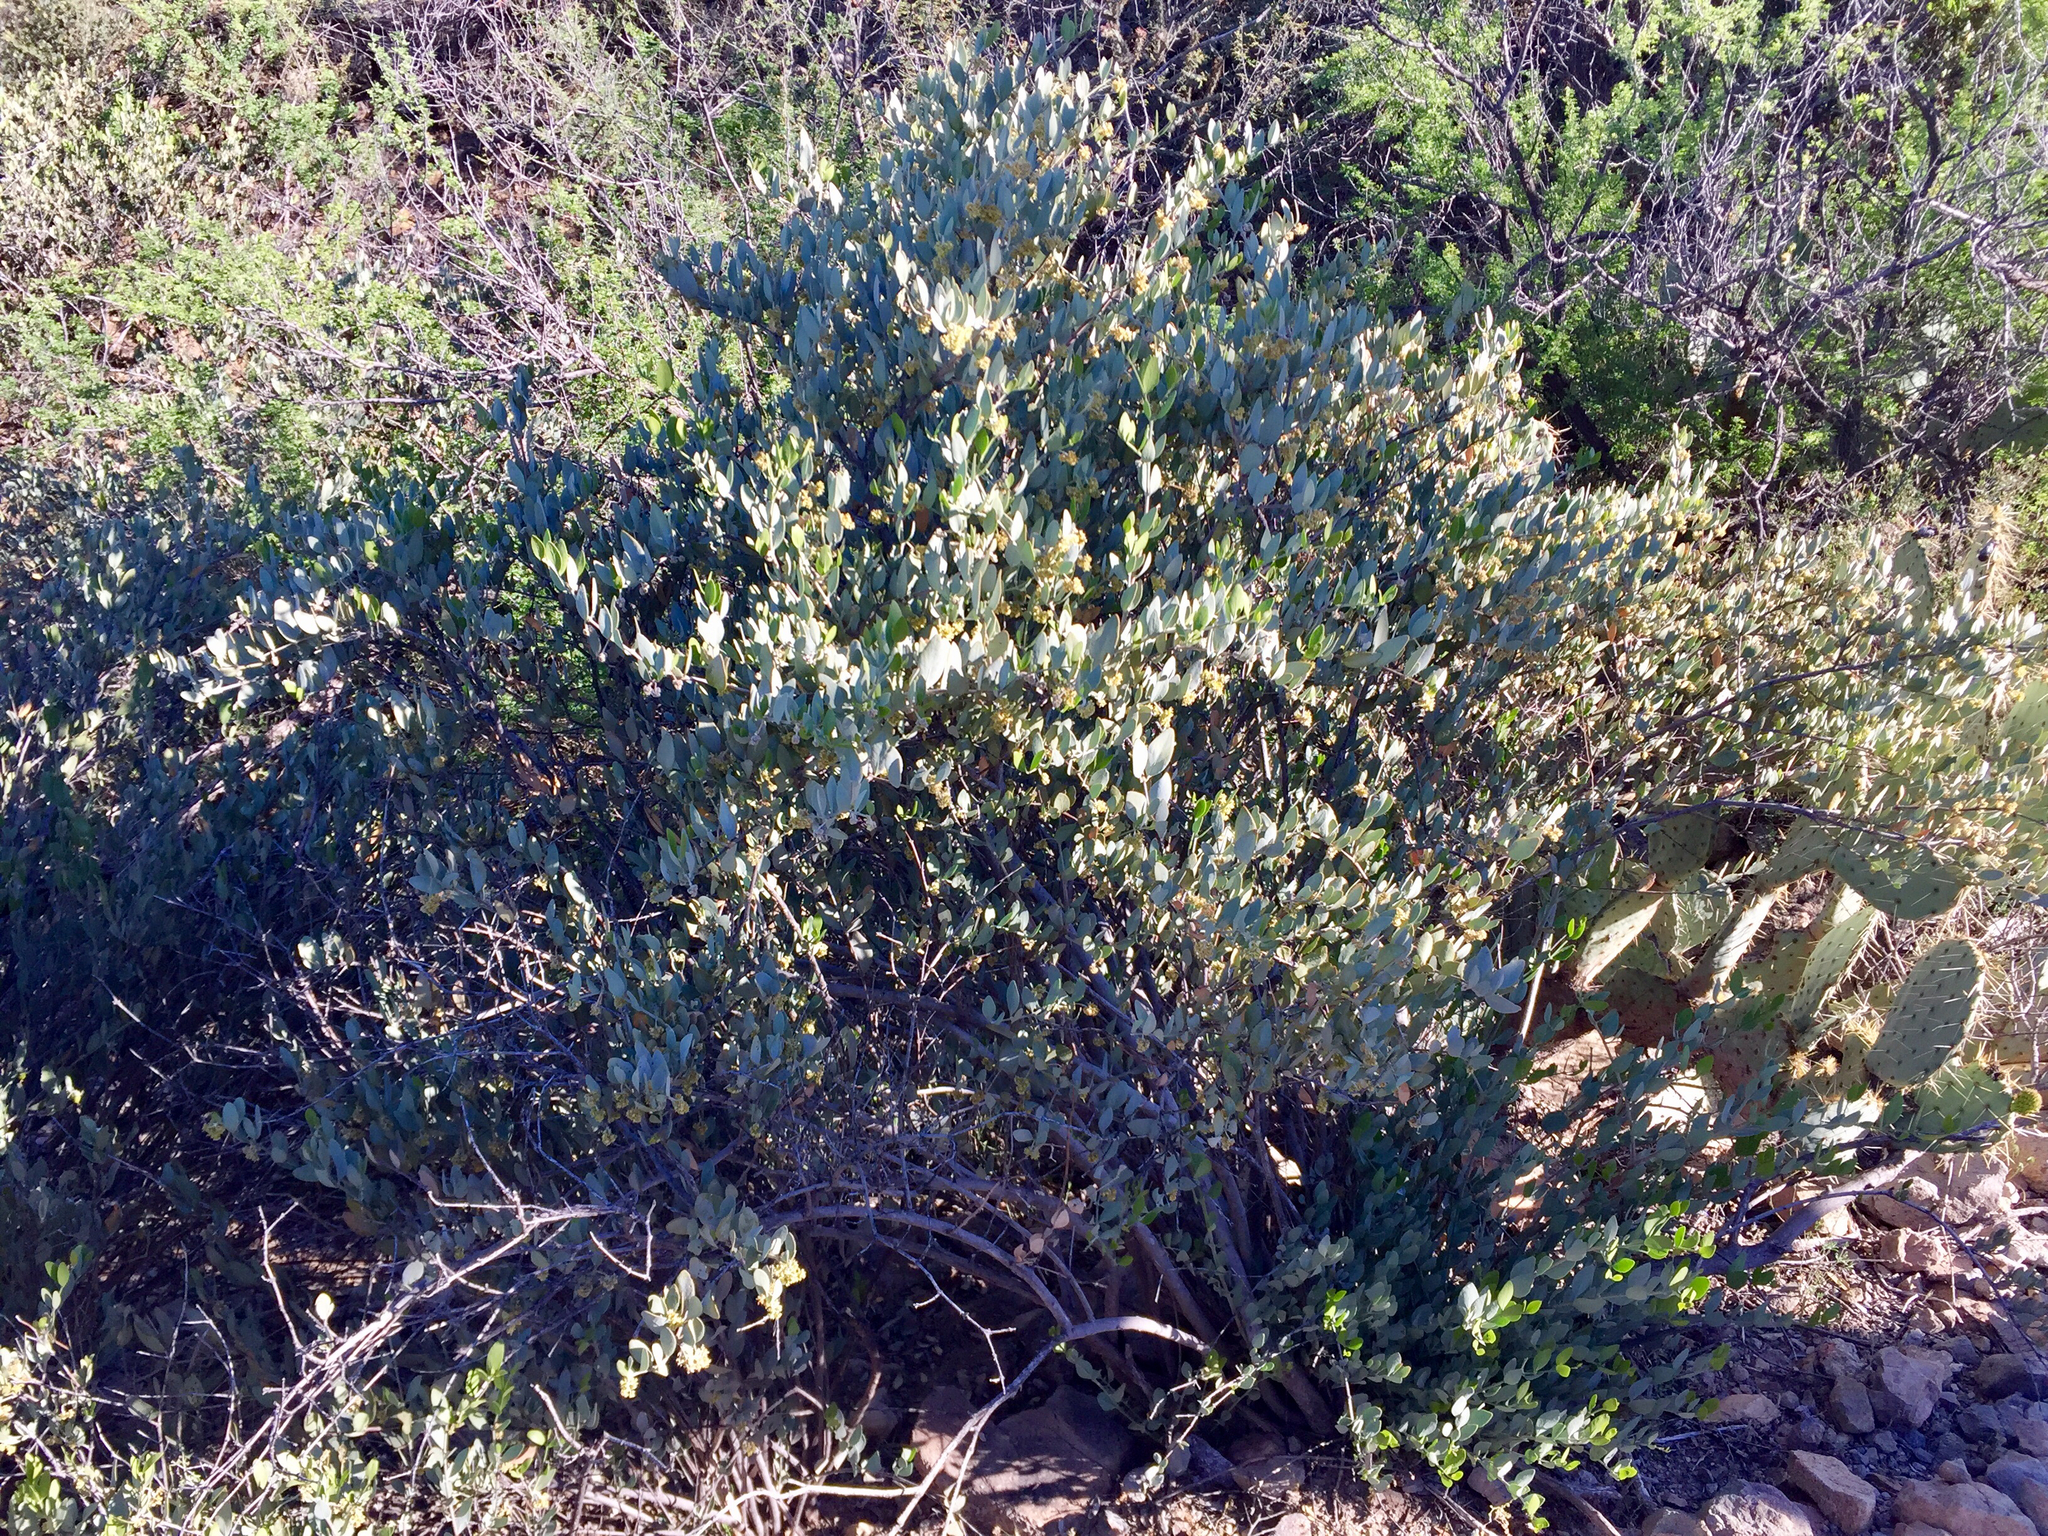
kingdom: Plantae
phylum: Tracheophyta
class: Magnoliopsida
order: Caryophyllales
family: Simmondsiaceae
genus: Simmondsia
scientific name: Simmondsia chinensis
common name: Jojoba
